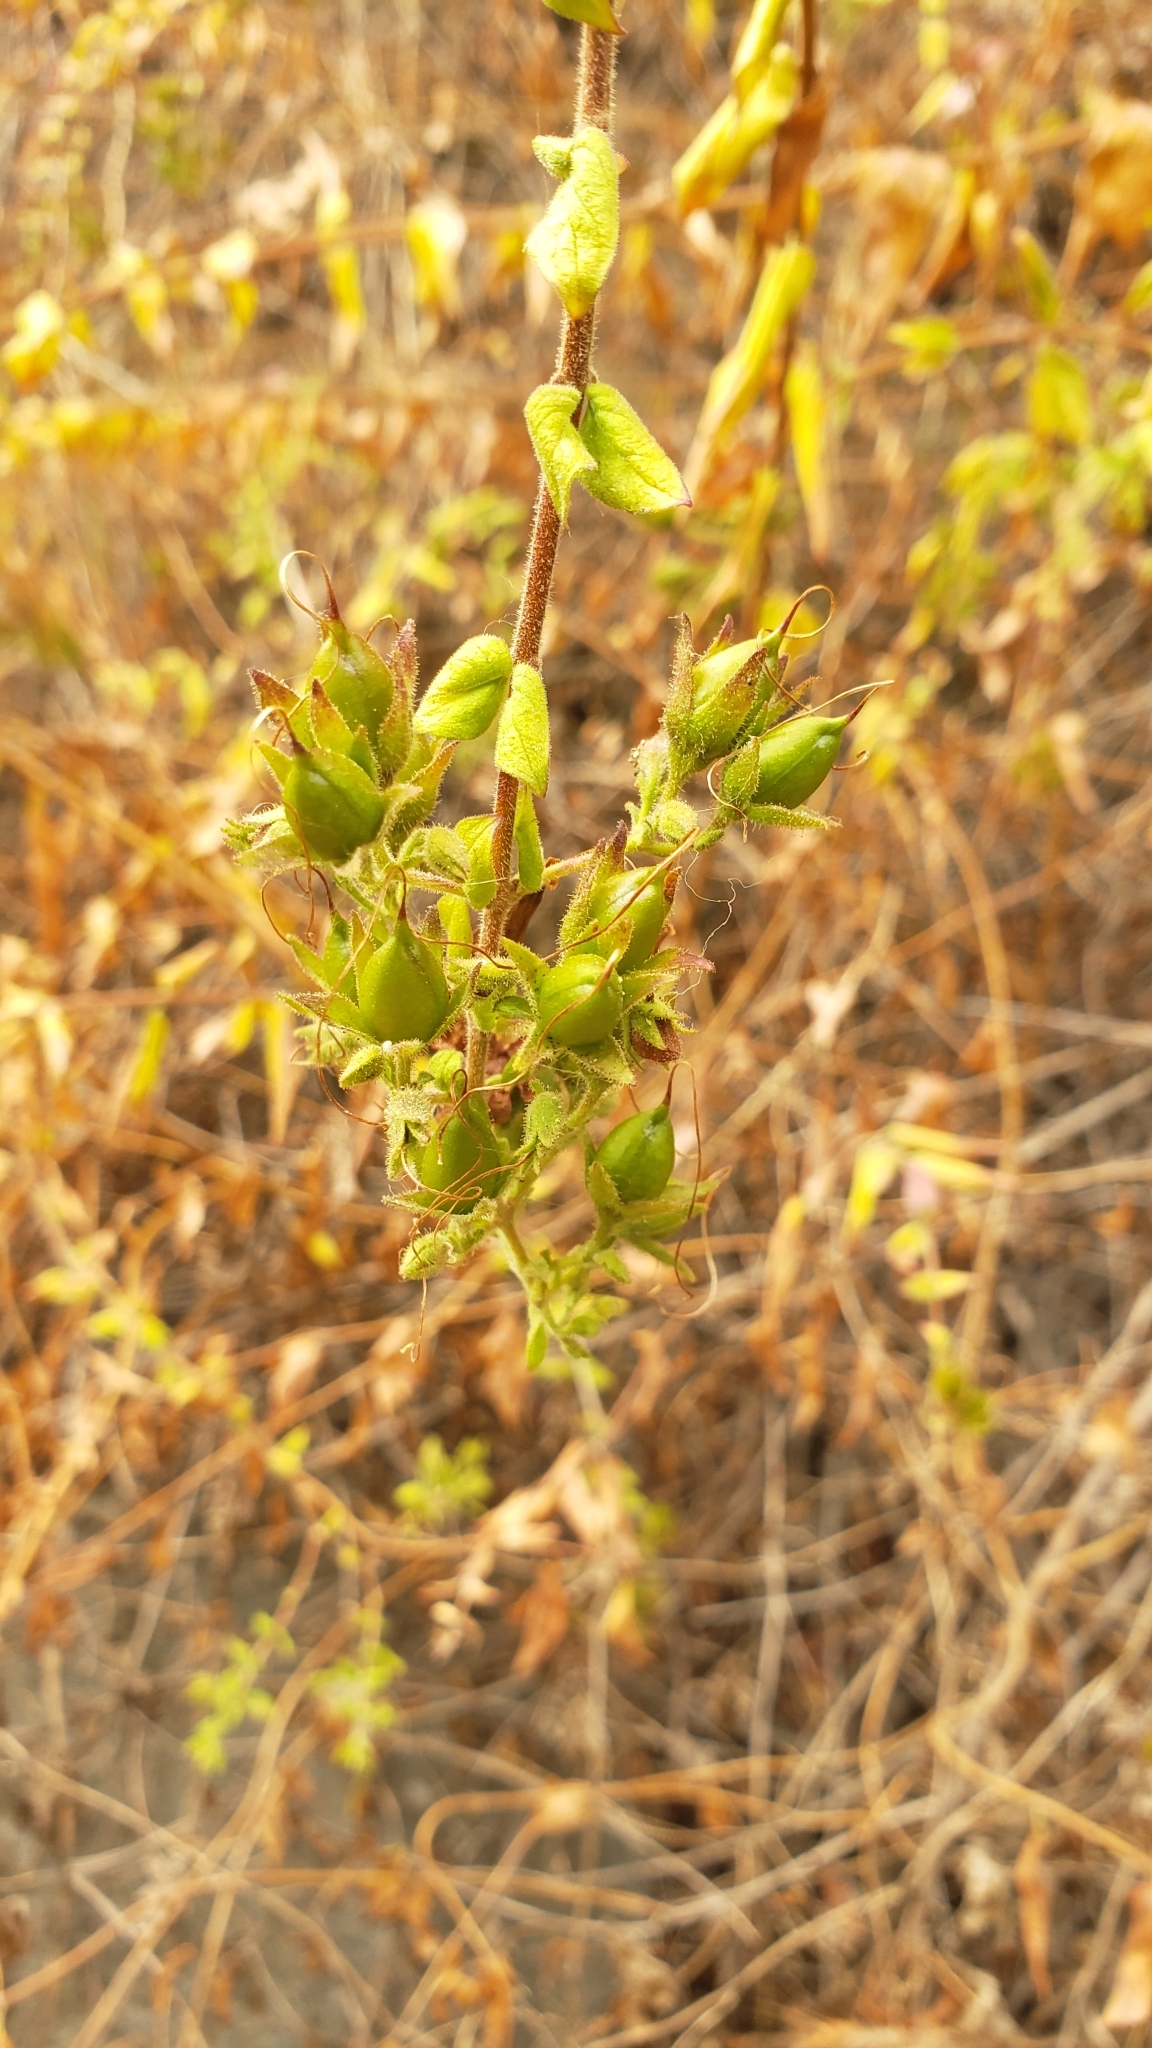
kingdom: Plantae
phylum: Tracheophyta
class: Magnoliopsida
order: Lamiales
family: Plantaginaceae
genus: Keckiella
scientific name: Keckiella cordifolia
